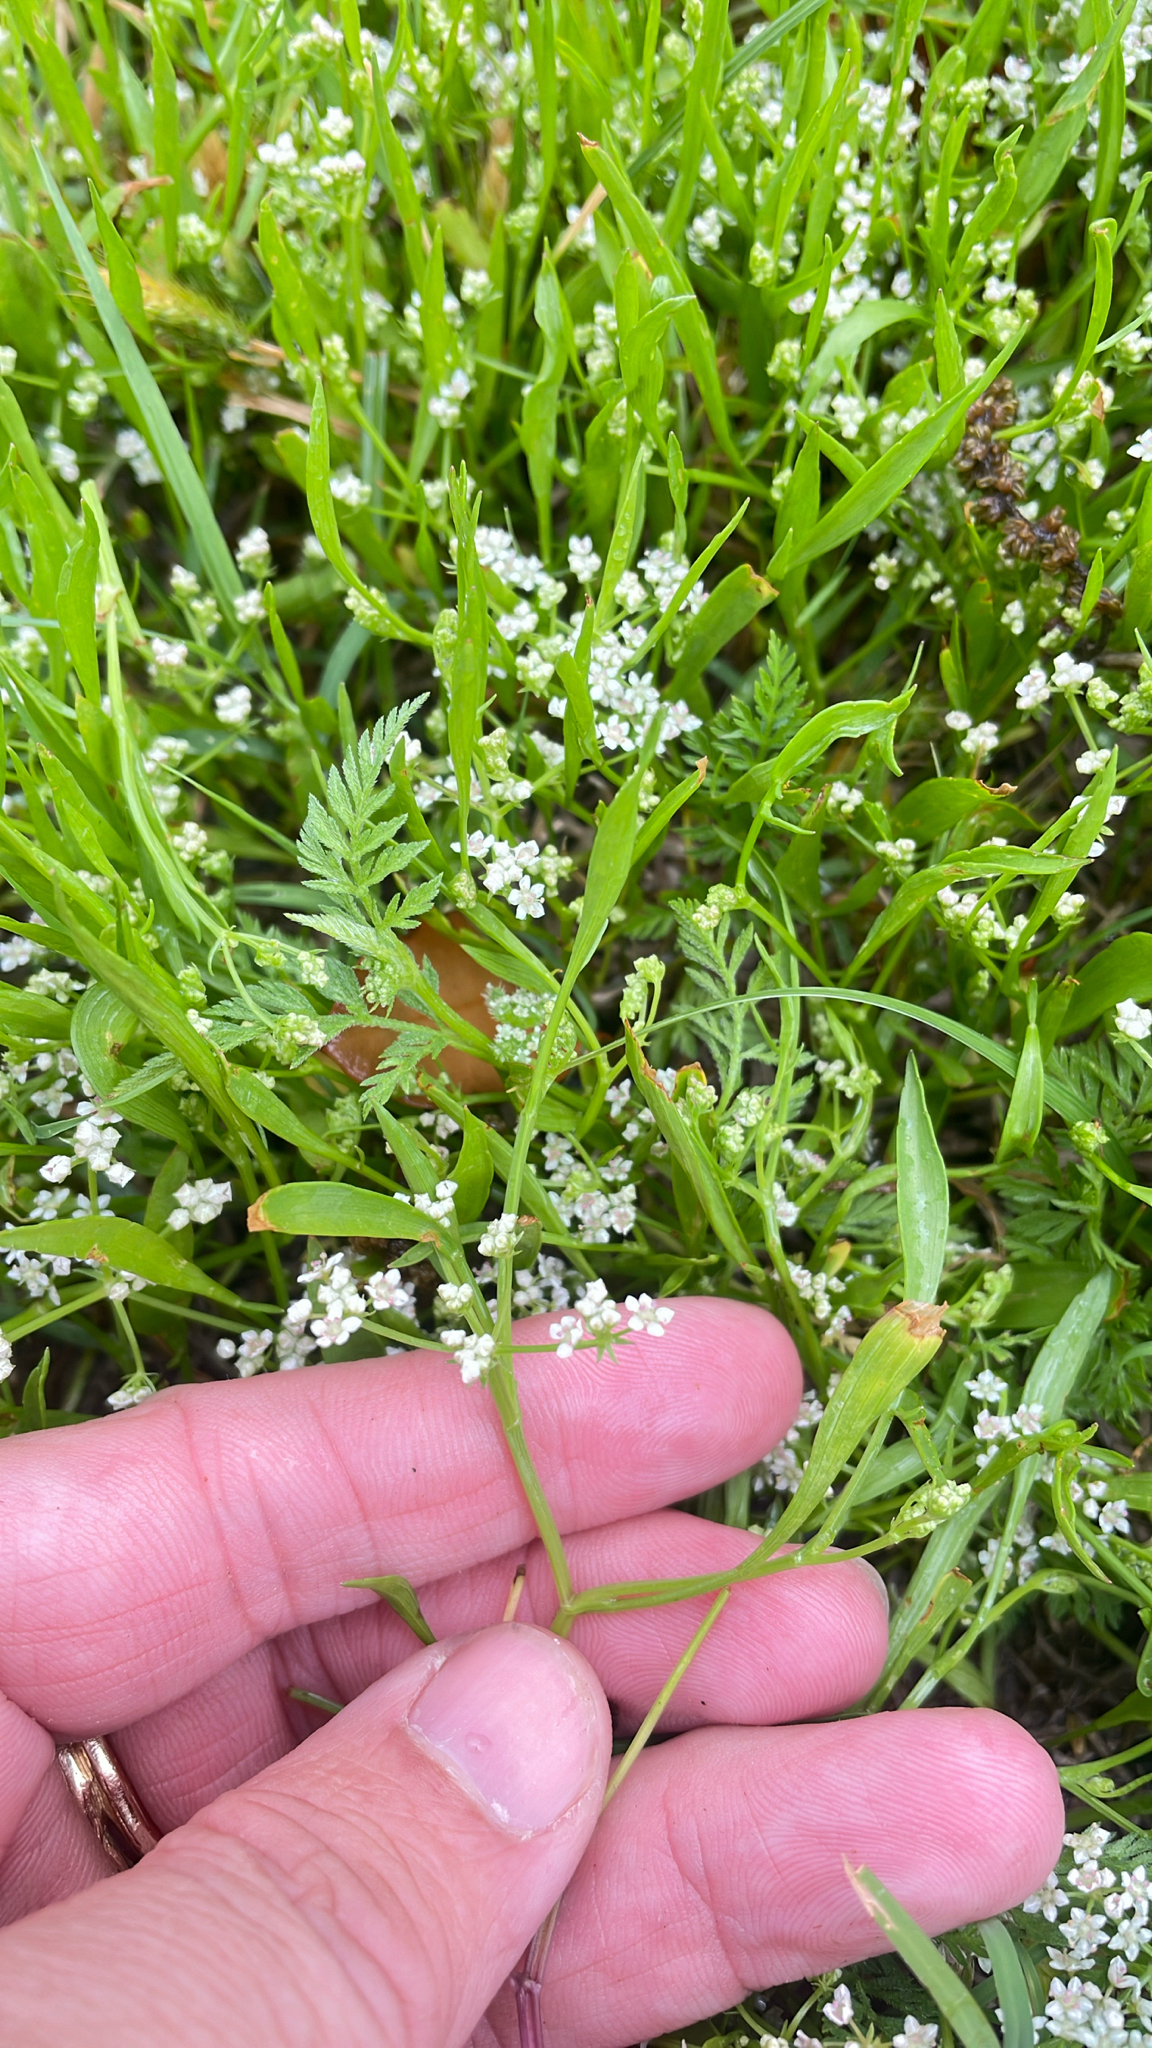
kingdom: Plantae
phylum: Tracheophyta
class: Magnoliopsida
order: Apiales
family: Apiaceae
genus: Limnosciadium
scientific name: Limnosciadium pinnatum
